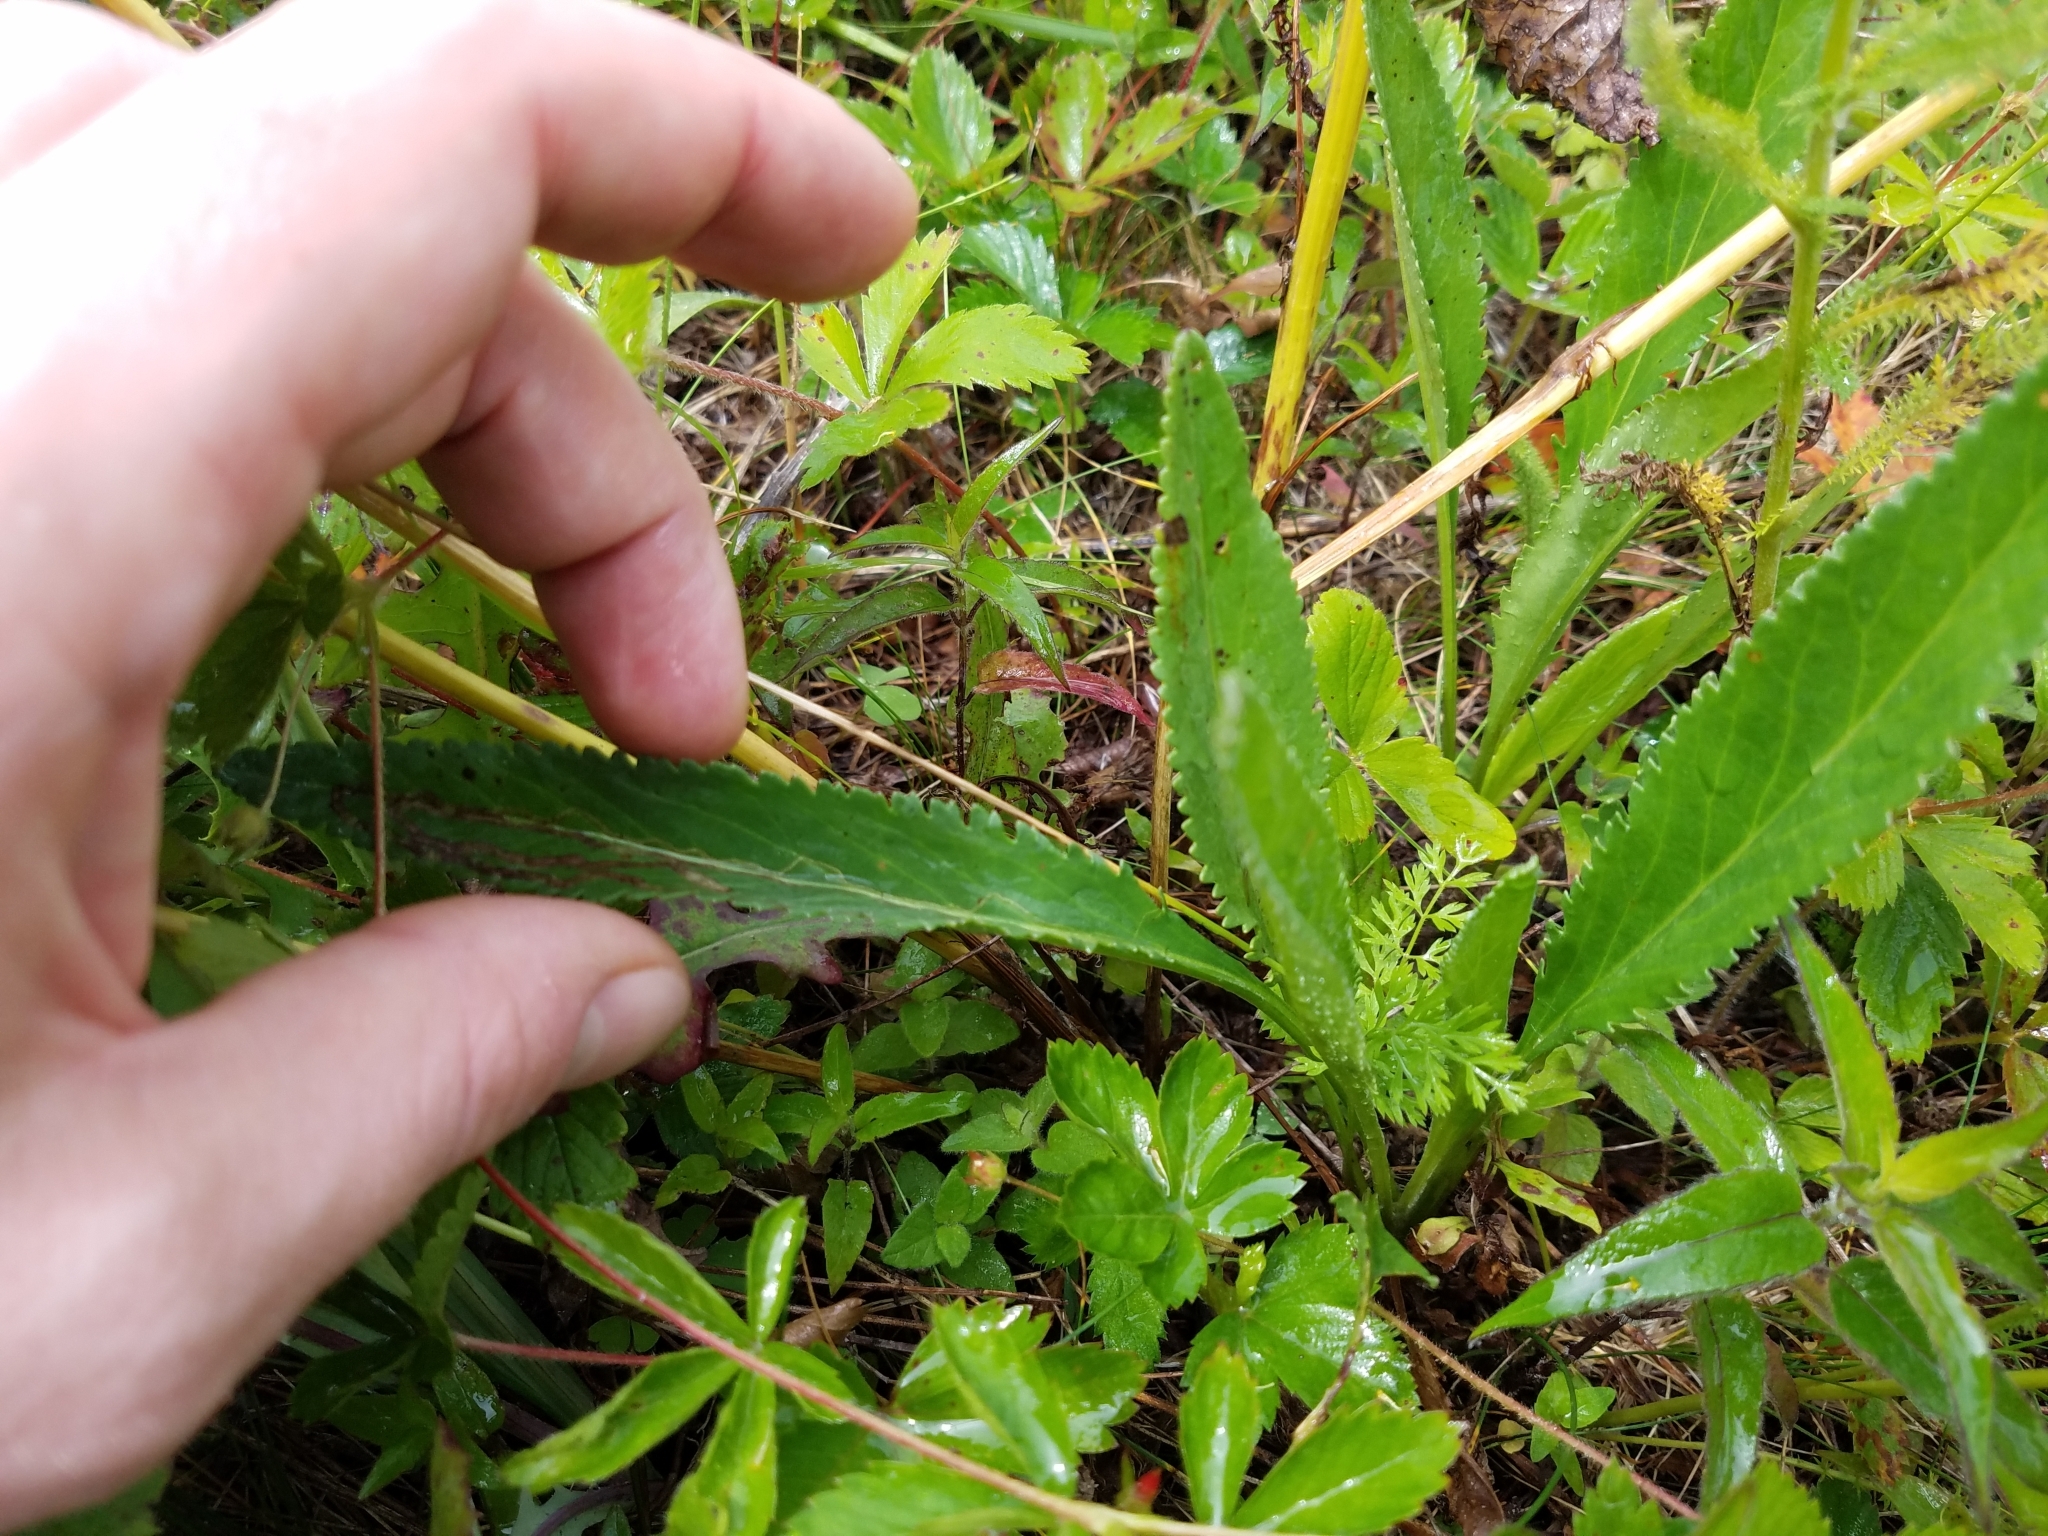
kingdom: Plantae
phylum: Tracheophyta
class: Magnoliopsida
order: Asterales
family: Asteraceae
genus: Packera
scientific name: Packera anonyma
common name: Small ragwort
